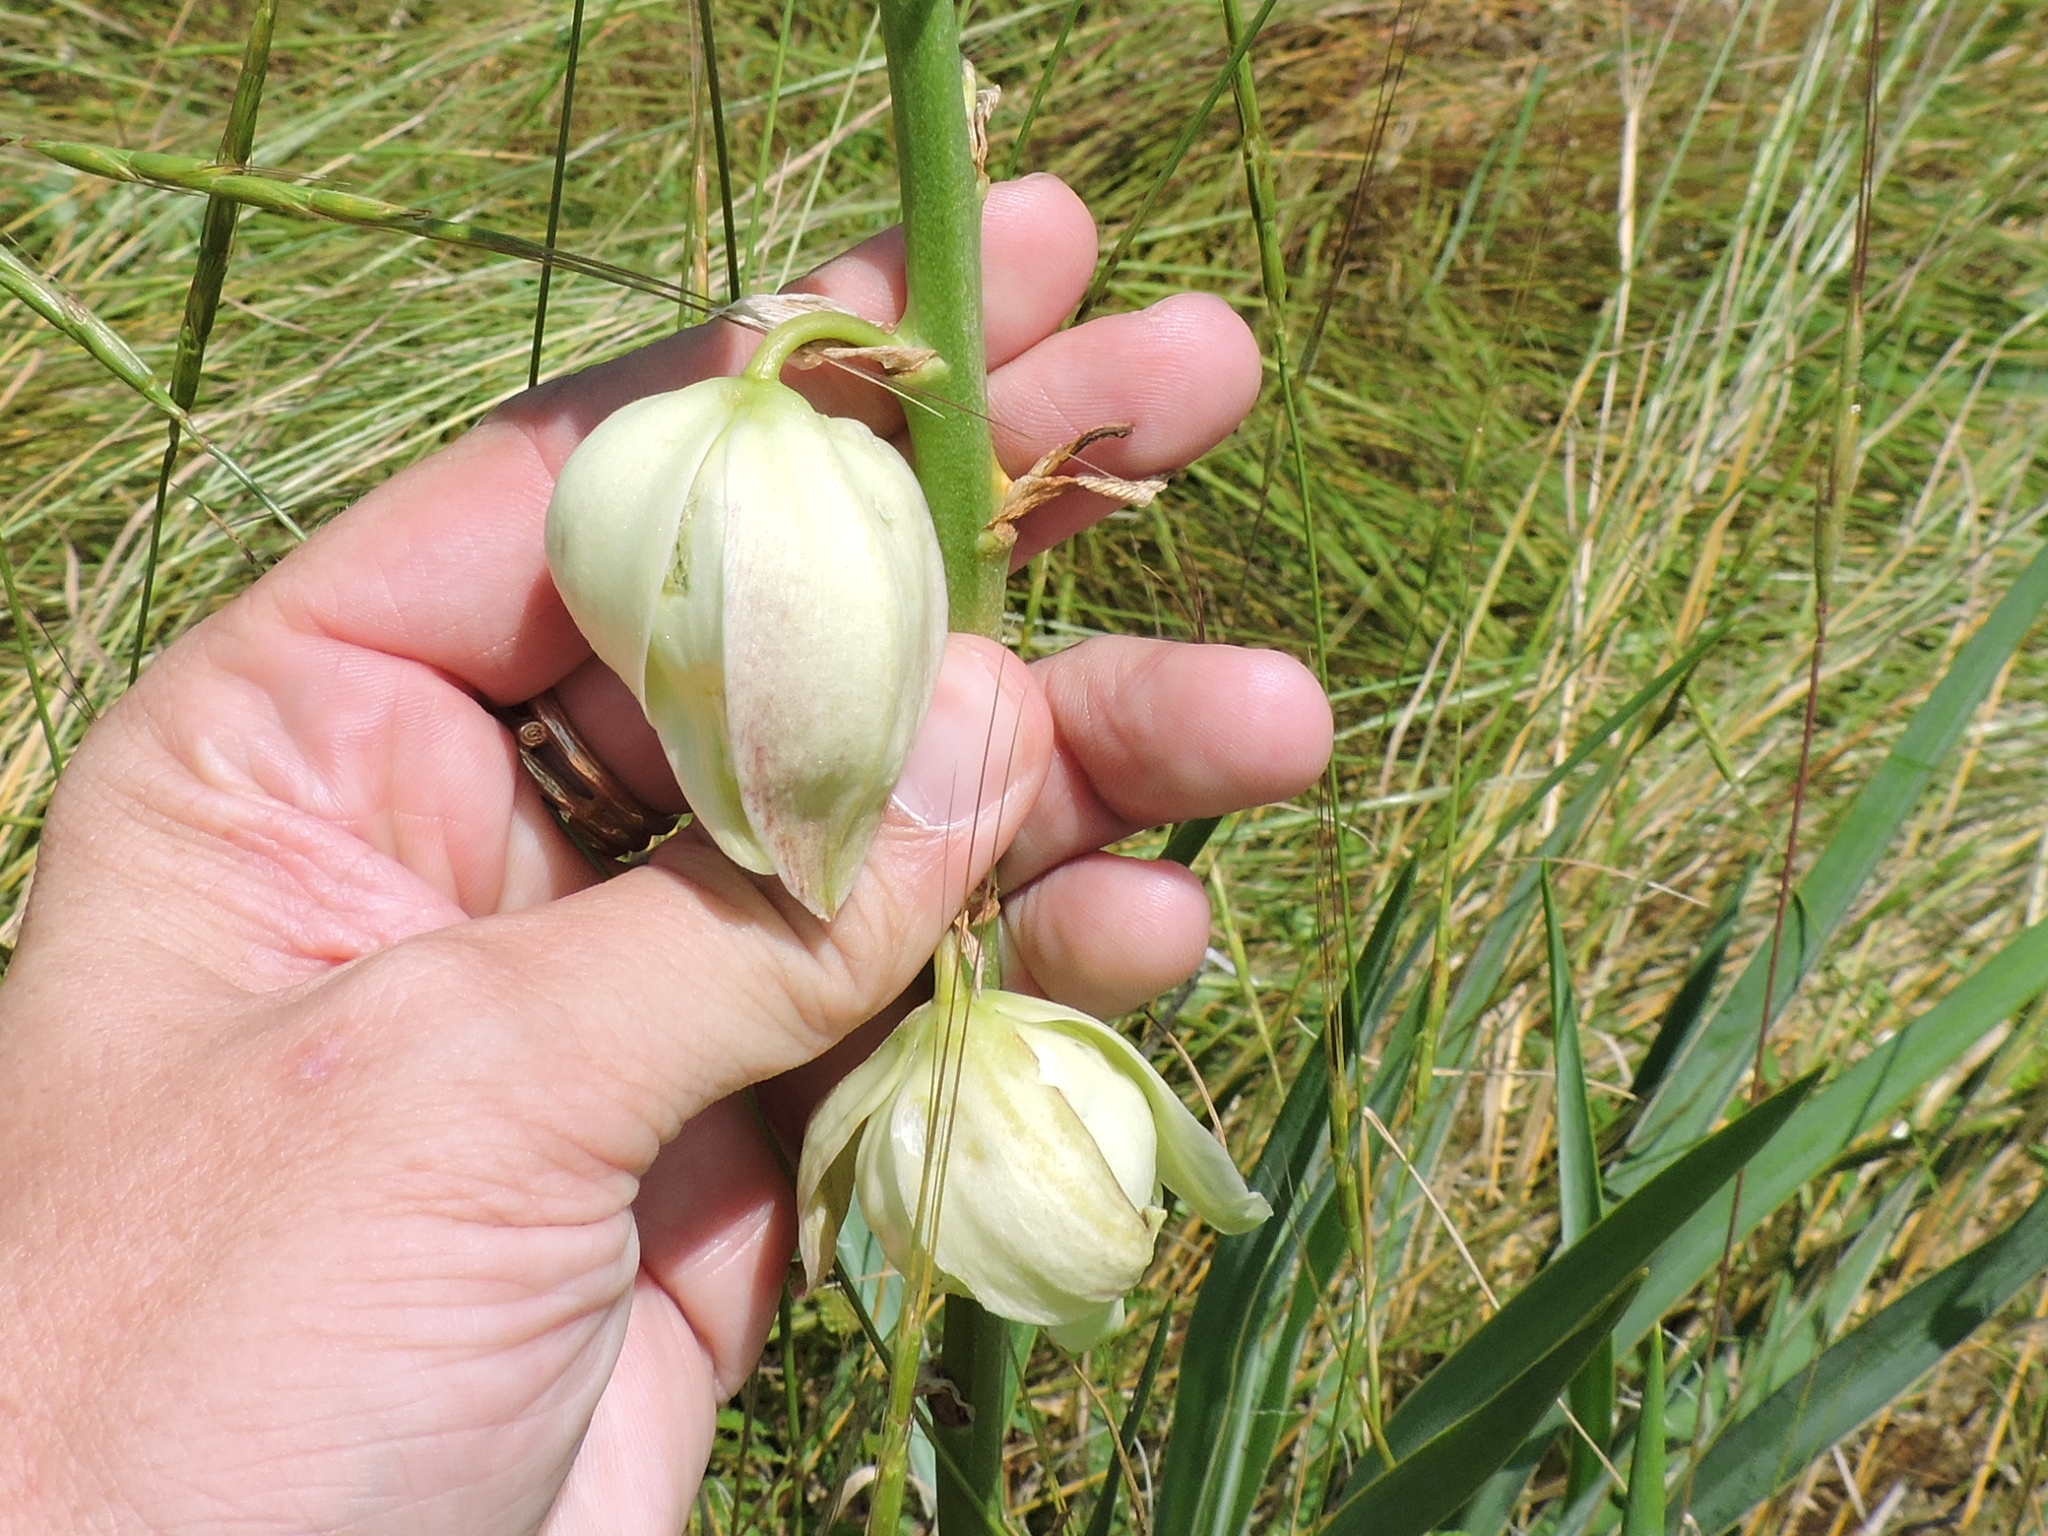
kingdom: Plantae
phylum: Tracheophyta
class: Liliopsida
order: Asparagales
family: Asparagaceae
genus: Yucca
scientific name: Yucca arkansana
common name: Arkansas yucca
